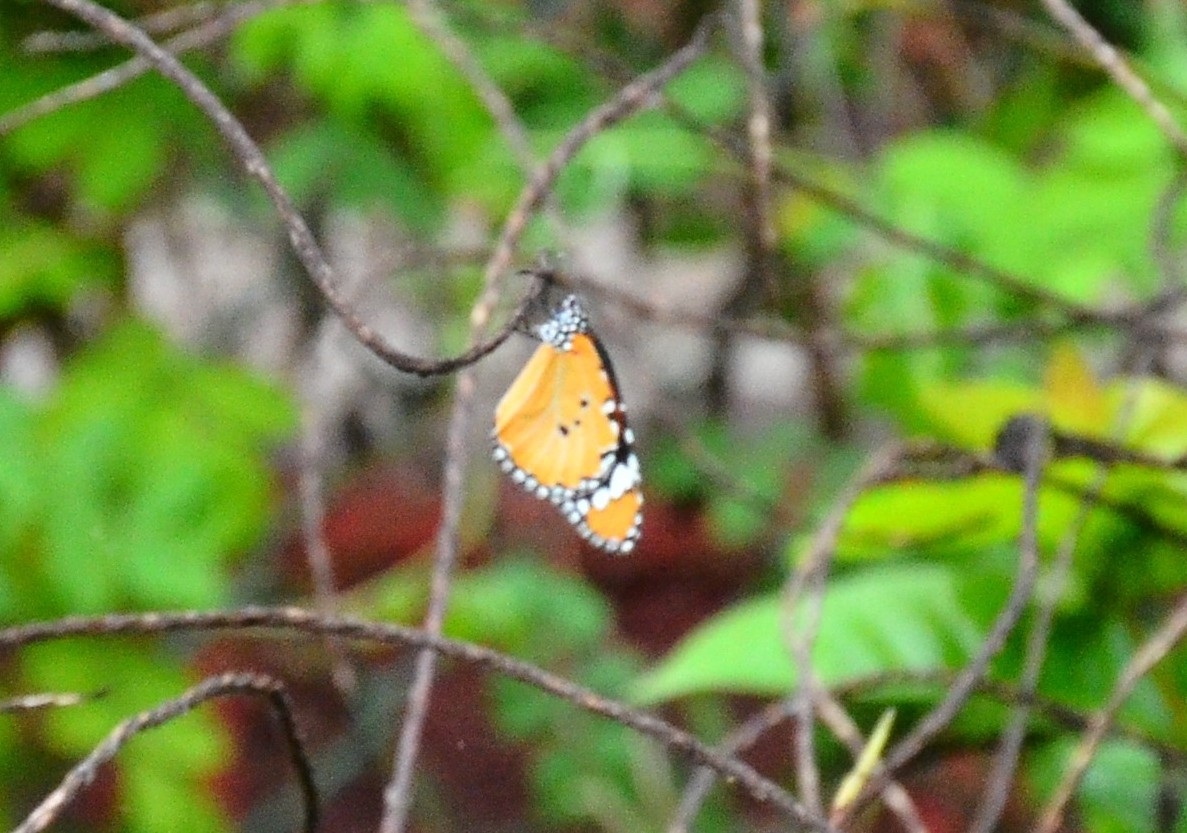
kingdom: Animalia
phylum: Arthropoda
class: Insecta
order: Lepidoptera
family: Nymphalidae
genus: Danaus
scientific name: Danaus chrysippus
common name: Plain tiger
